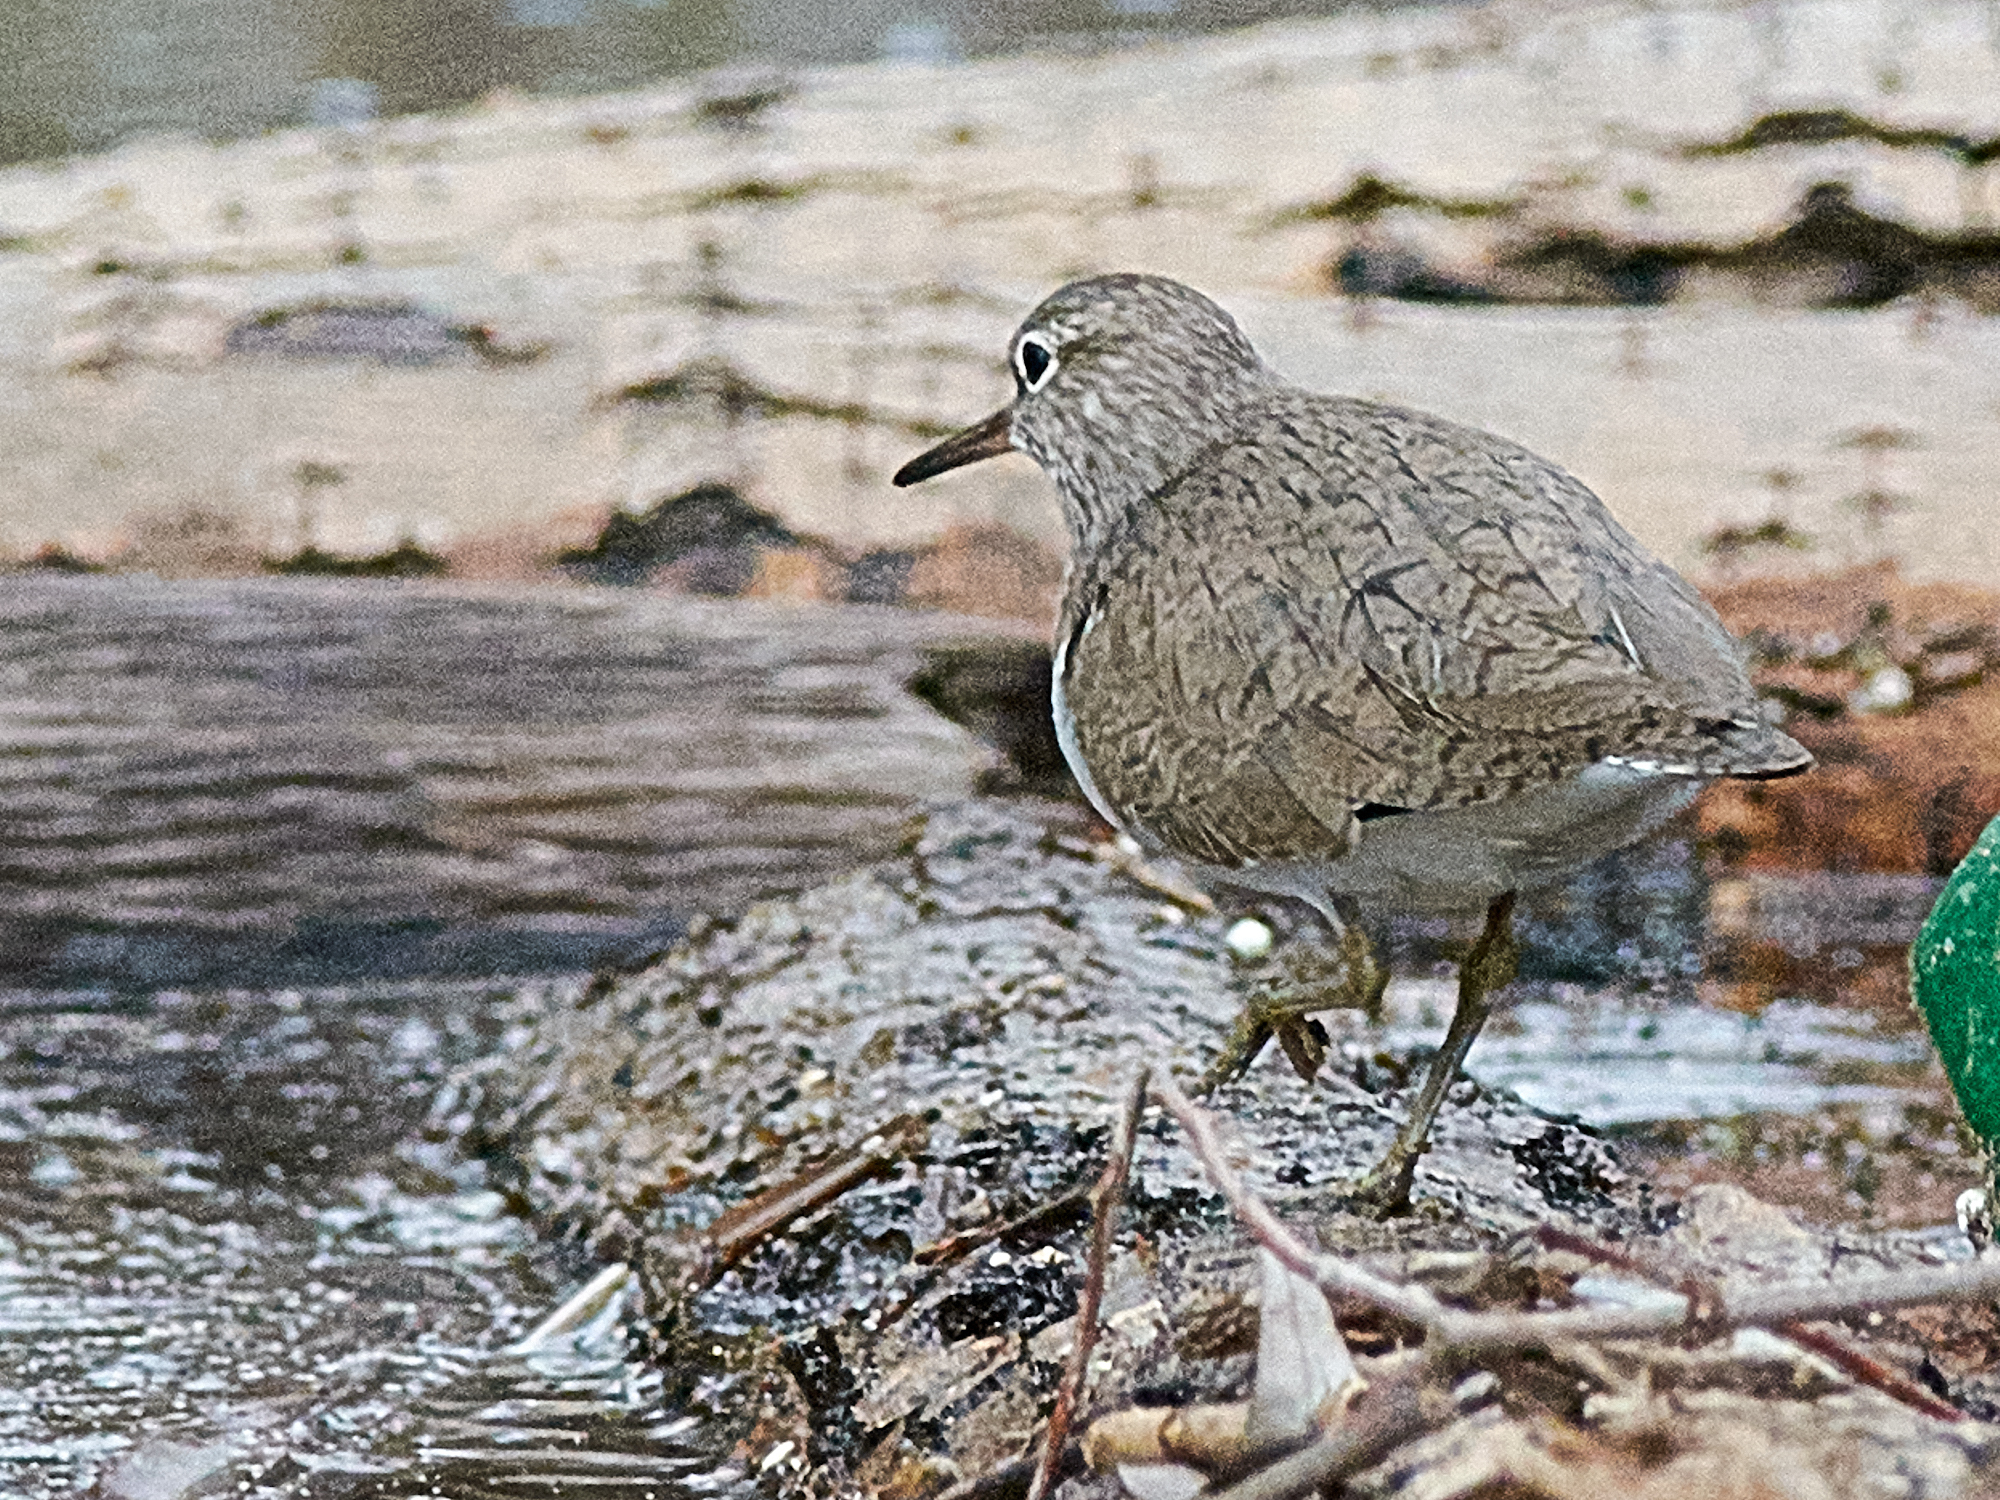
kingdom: Animalia
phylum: Chordata
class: Aves
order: Charadriiformes
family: Scolopacidae
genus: Actitis
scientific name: Actitis hypoleucos
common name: Common sandpiper
